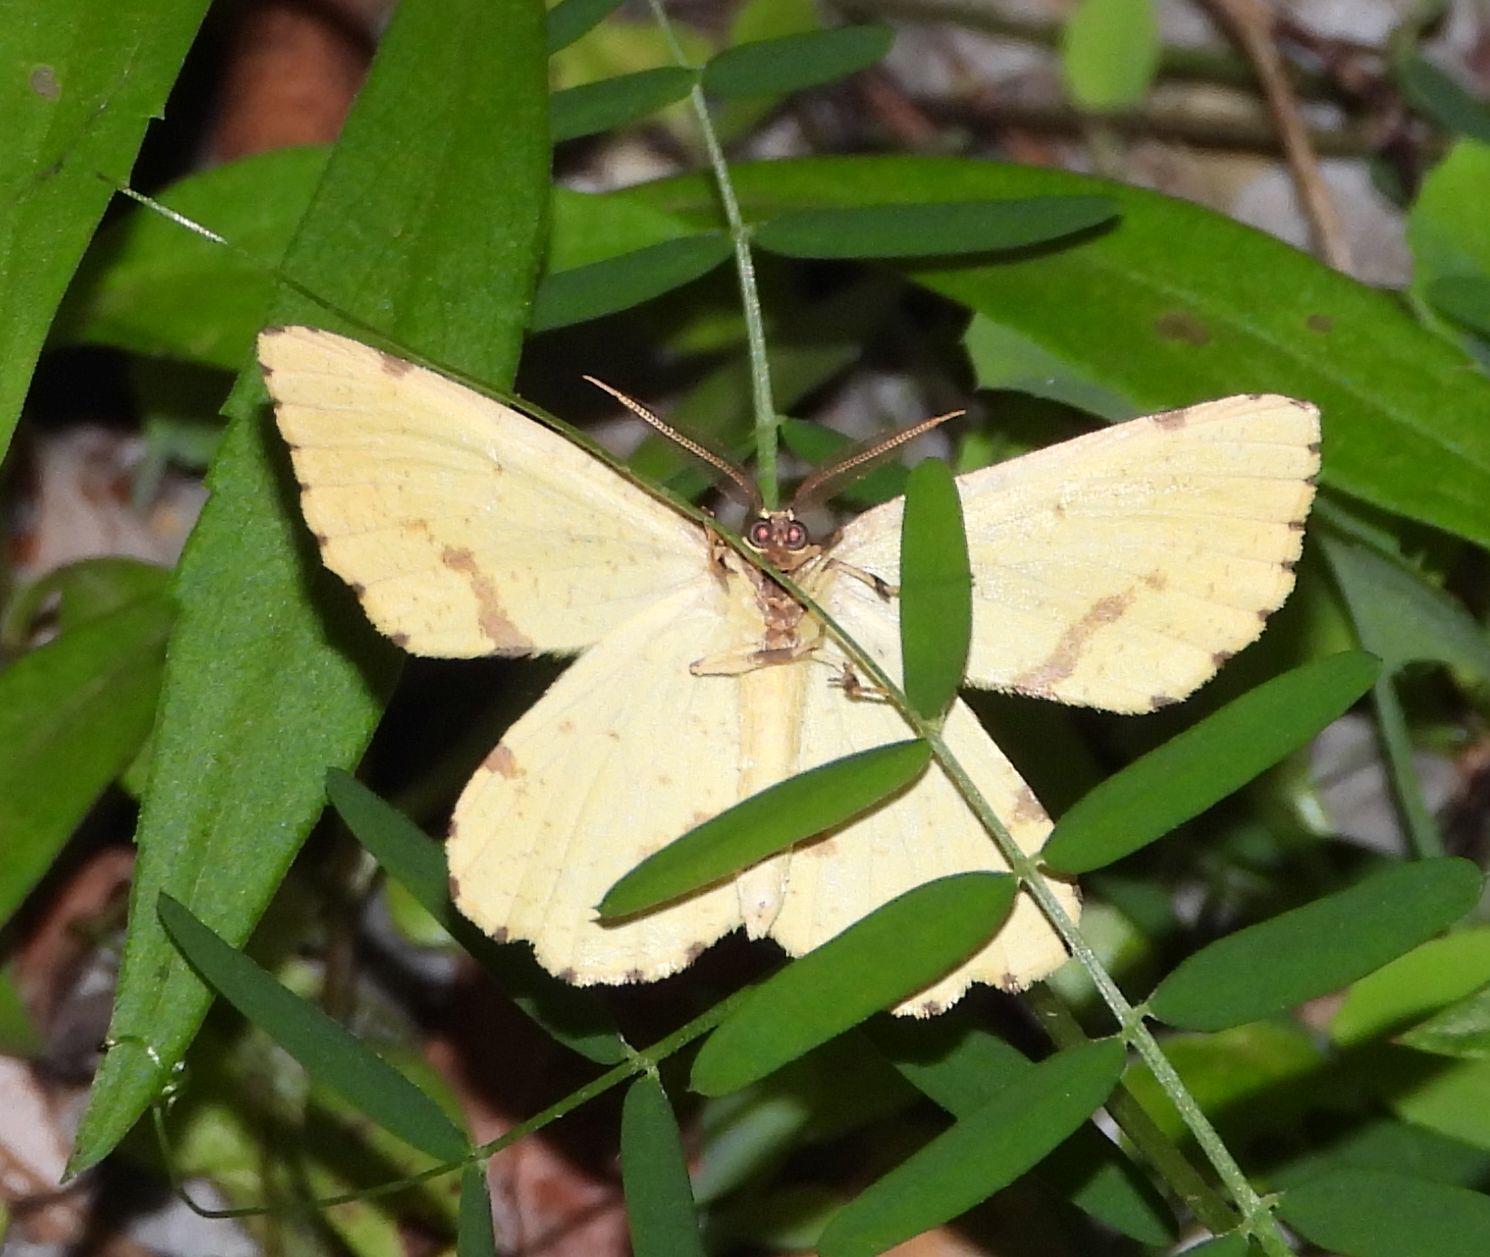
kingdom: Animalia
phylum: Arthropoda
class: Insecta
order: Lepidoptera
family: Geometridae
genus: Xanthotype
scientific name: Xanthotype
